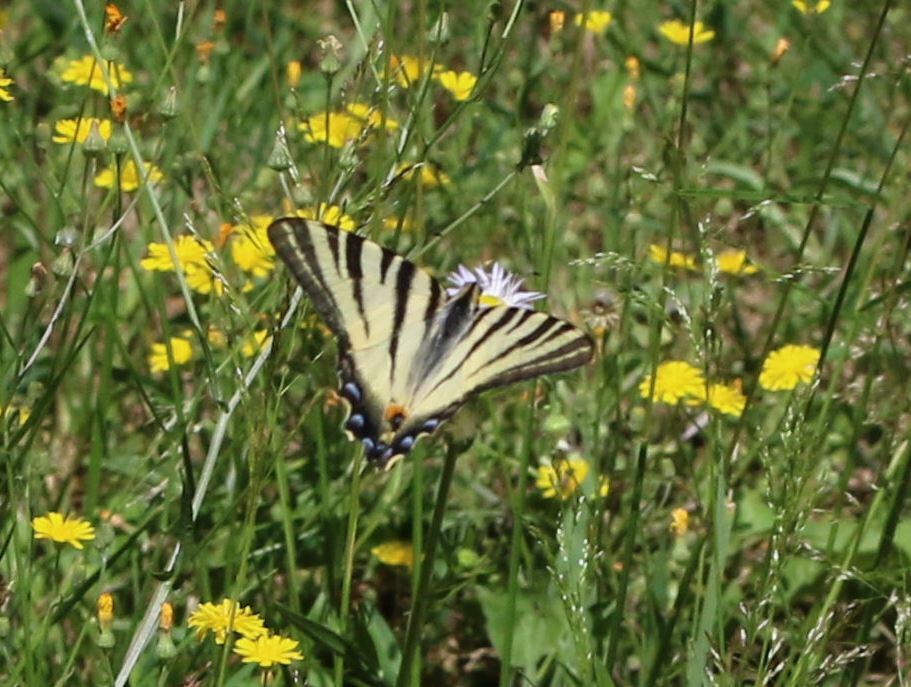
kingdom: Animalia
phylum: Arthropoda
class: Insecta
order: Lepidoptera
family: Papilionidae
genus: Iphiclides
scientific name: Iphiclides podalirius
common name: Scarce swallowtail
